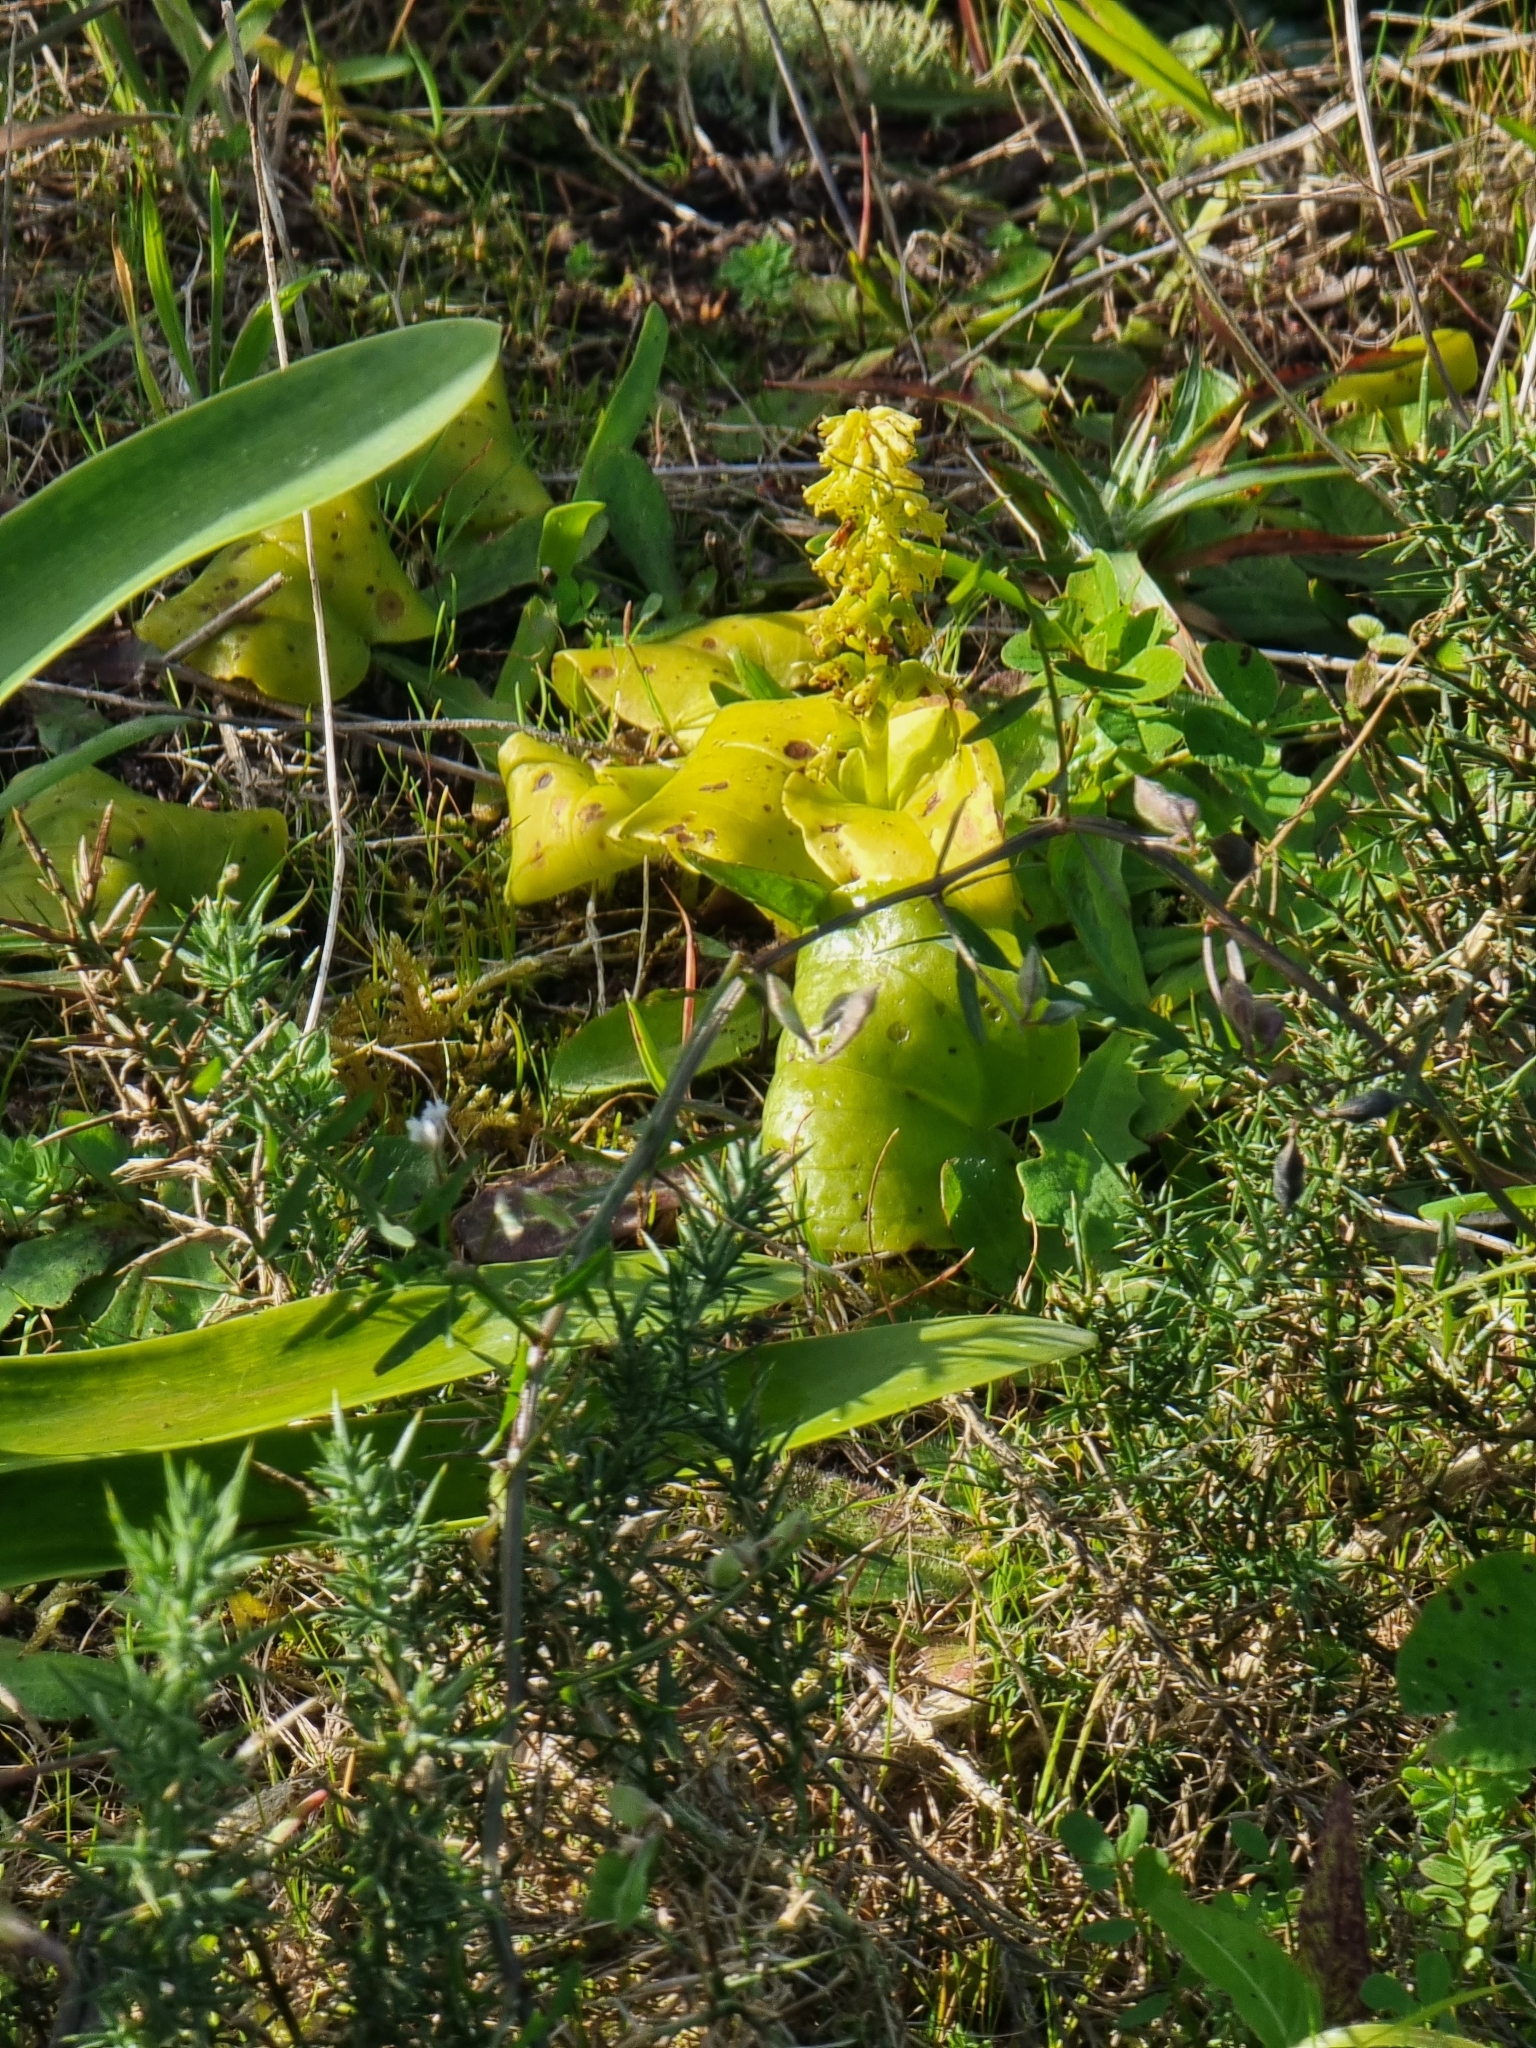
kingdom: Plantae
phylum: Tracheophyta
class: Liliopsida
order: Asparagales
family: Orchidaceae
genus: Gennaria
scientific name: Gennaria diphylla
